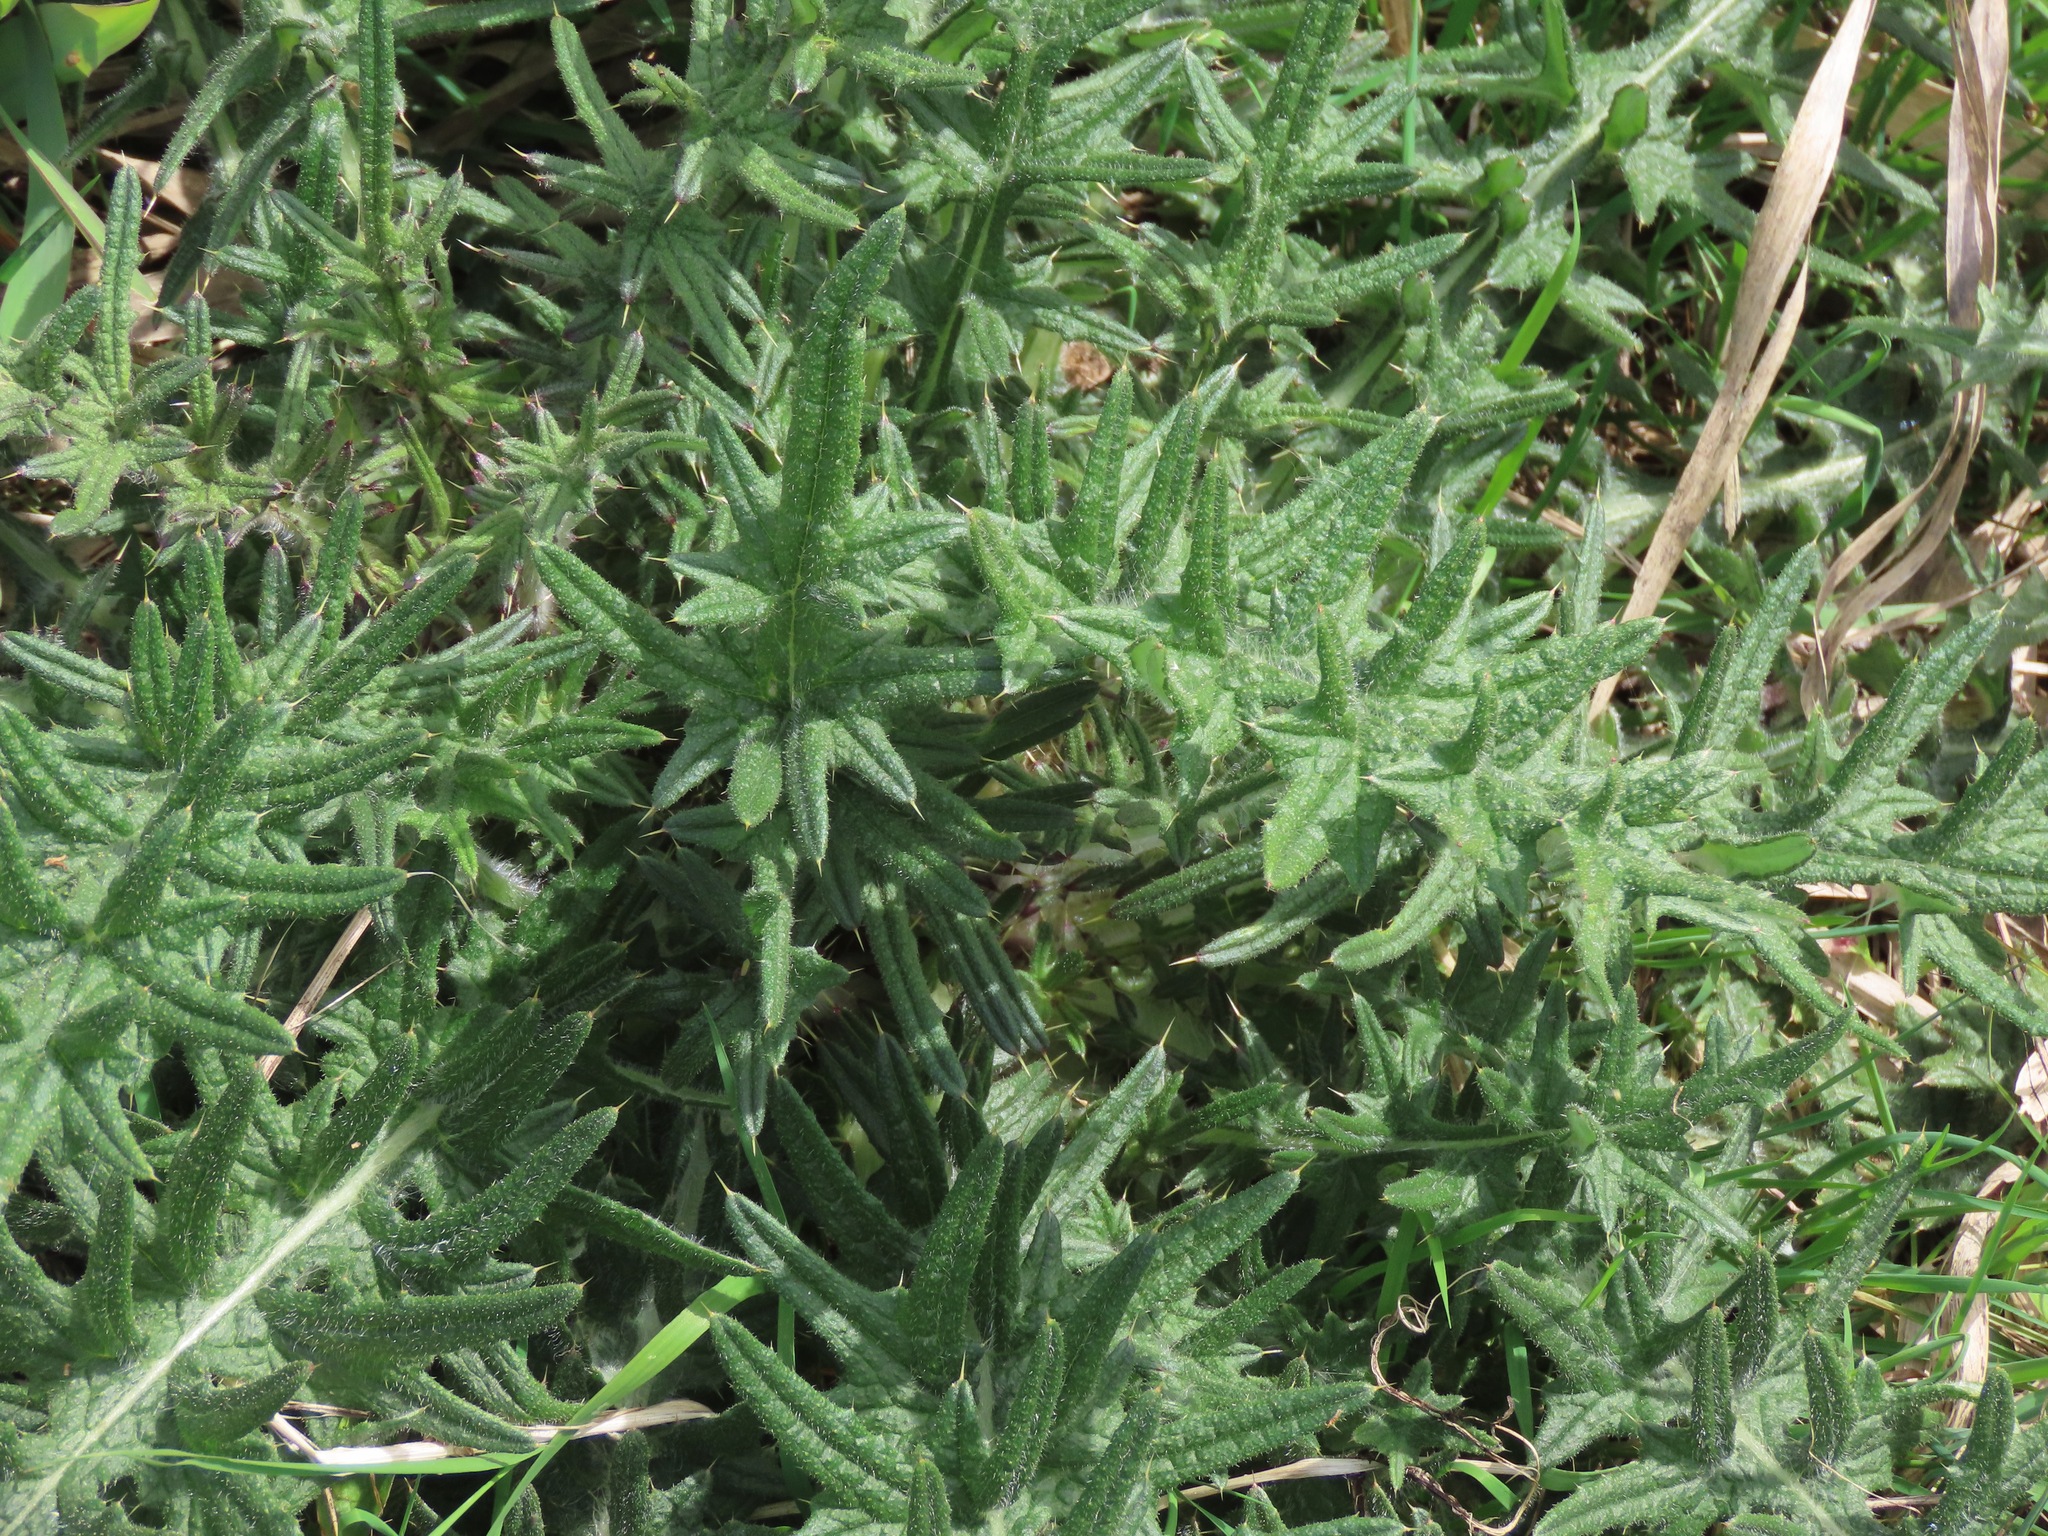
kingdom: Plantae
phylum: Tracheophyta
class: Magnoliopsida
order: Asterales
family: Asteraceae
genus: Cirsium
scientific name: Cirsium vulgare
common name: Bull thistle
